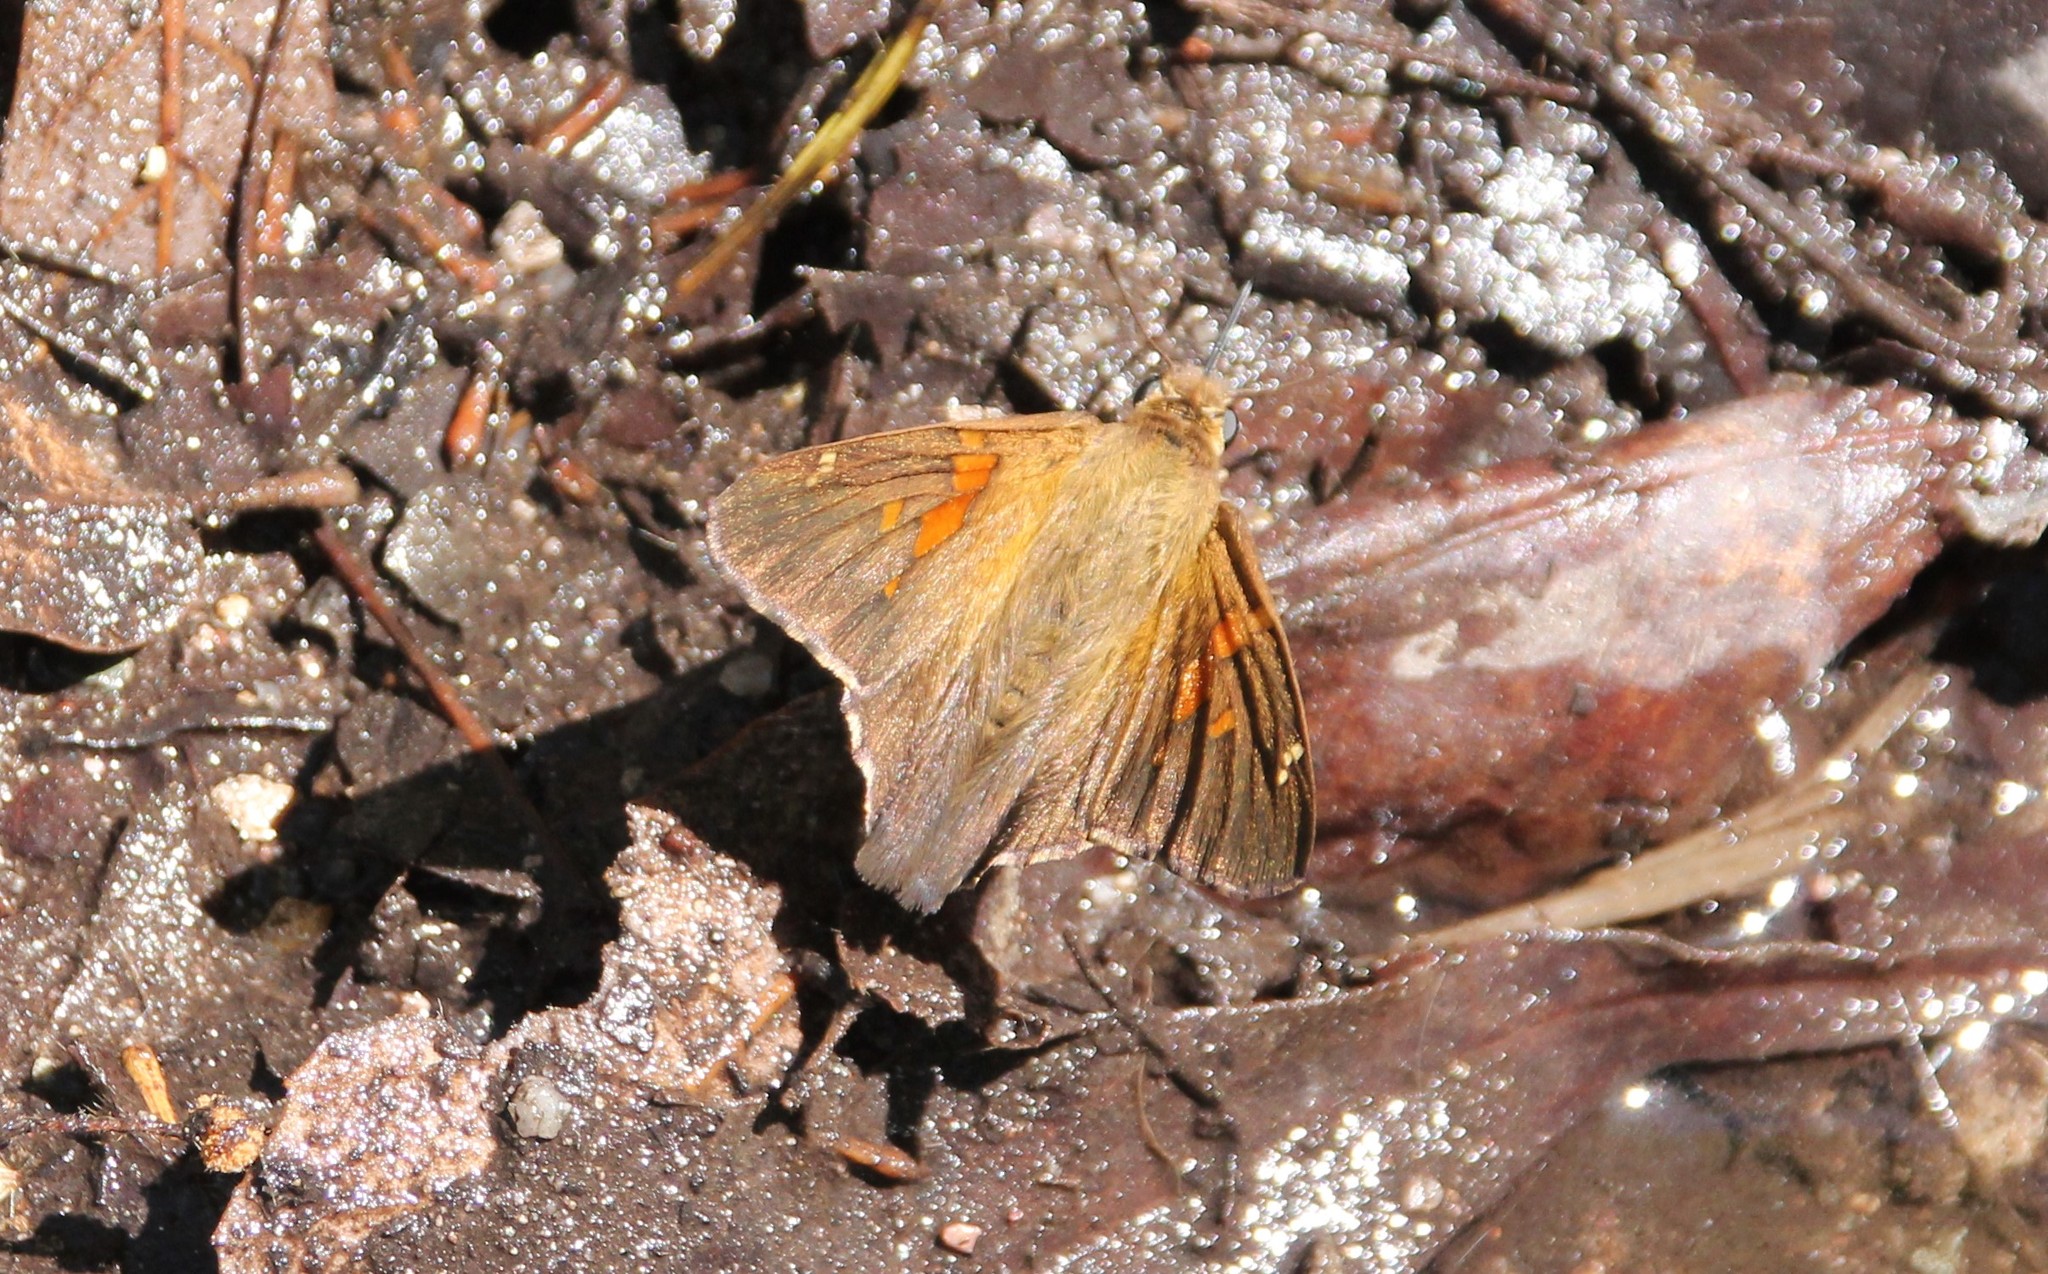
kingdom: Animalia
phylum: Arthropoda
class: Insecta
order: Lepidoptera
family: Hesperiidae
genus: Epargyreus
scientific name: Epargyreus clarus
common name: Silver-spotted skipper
